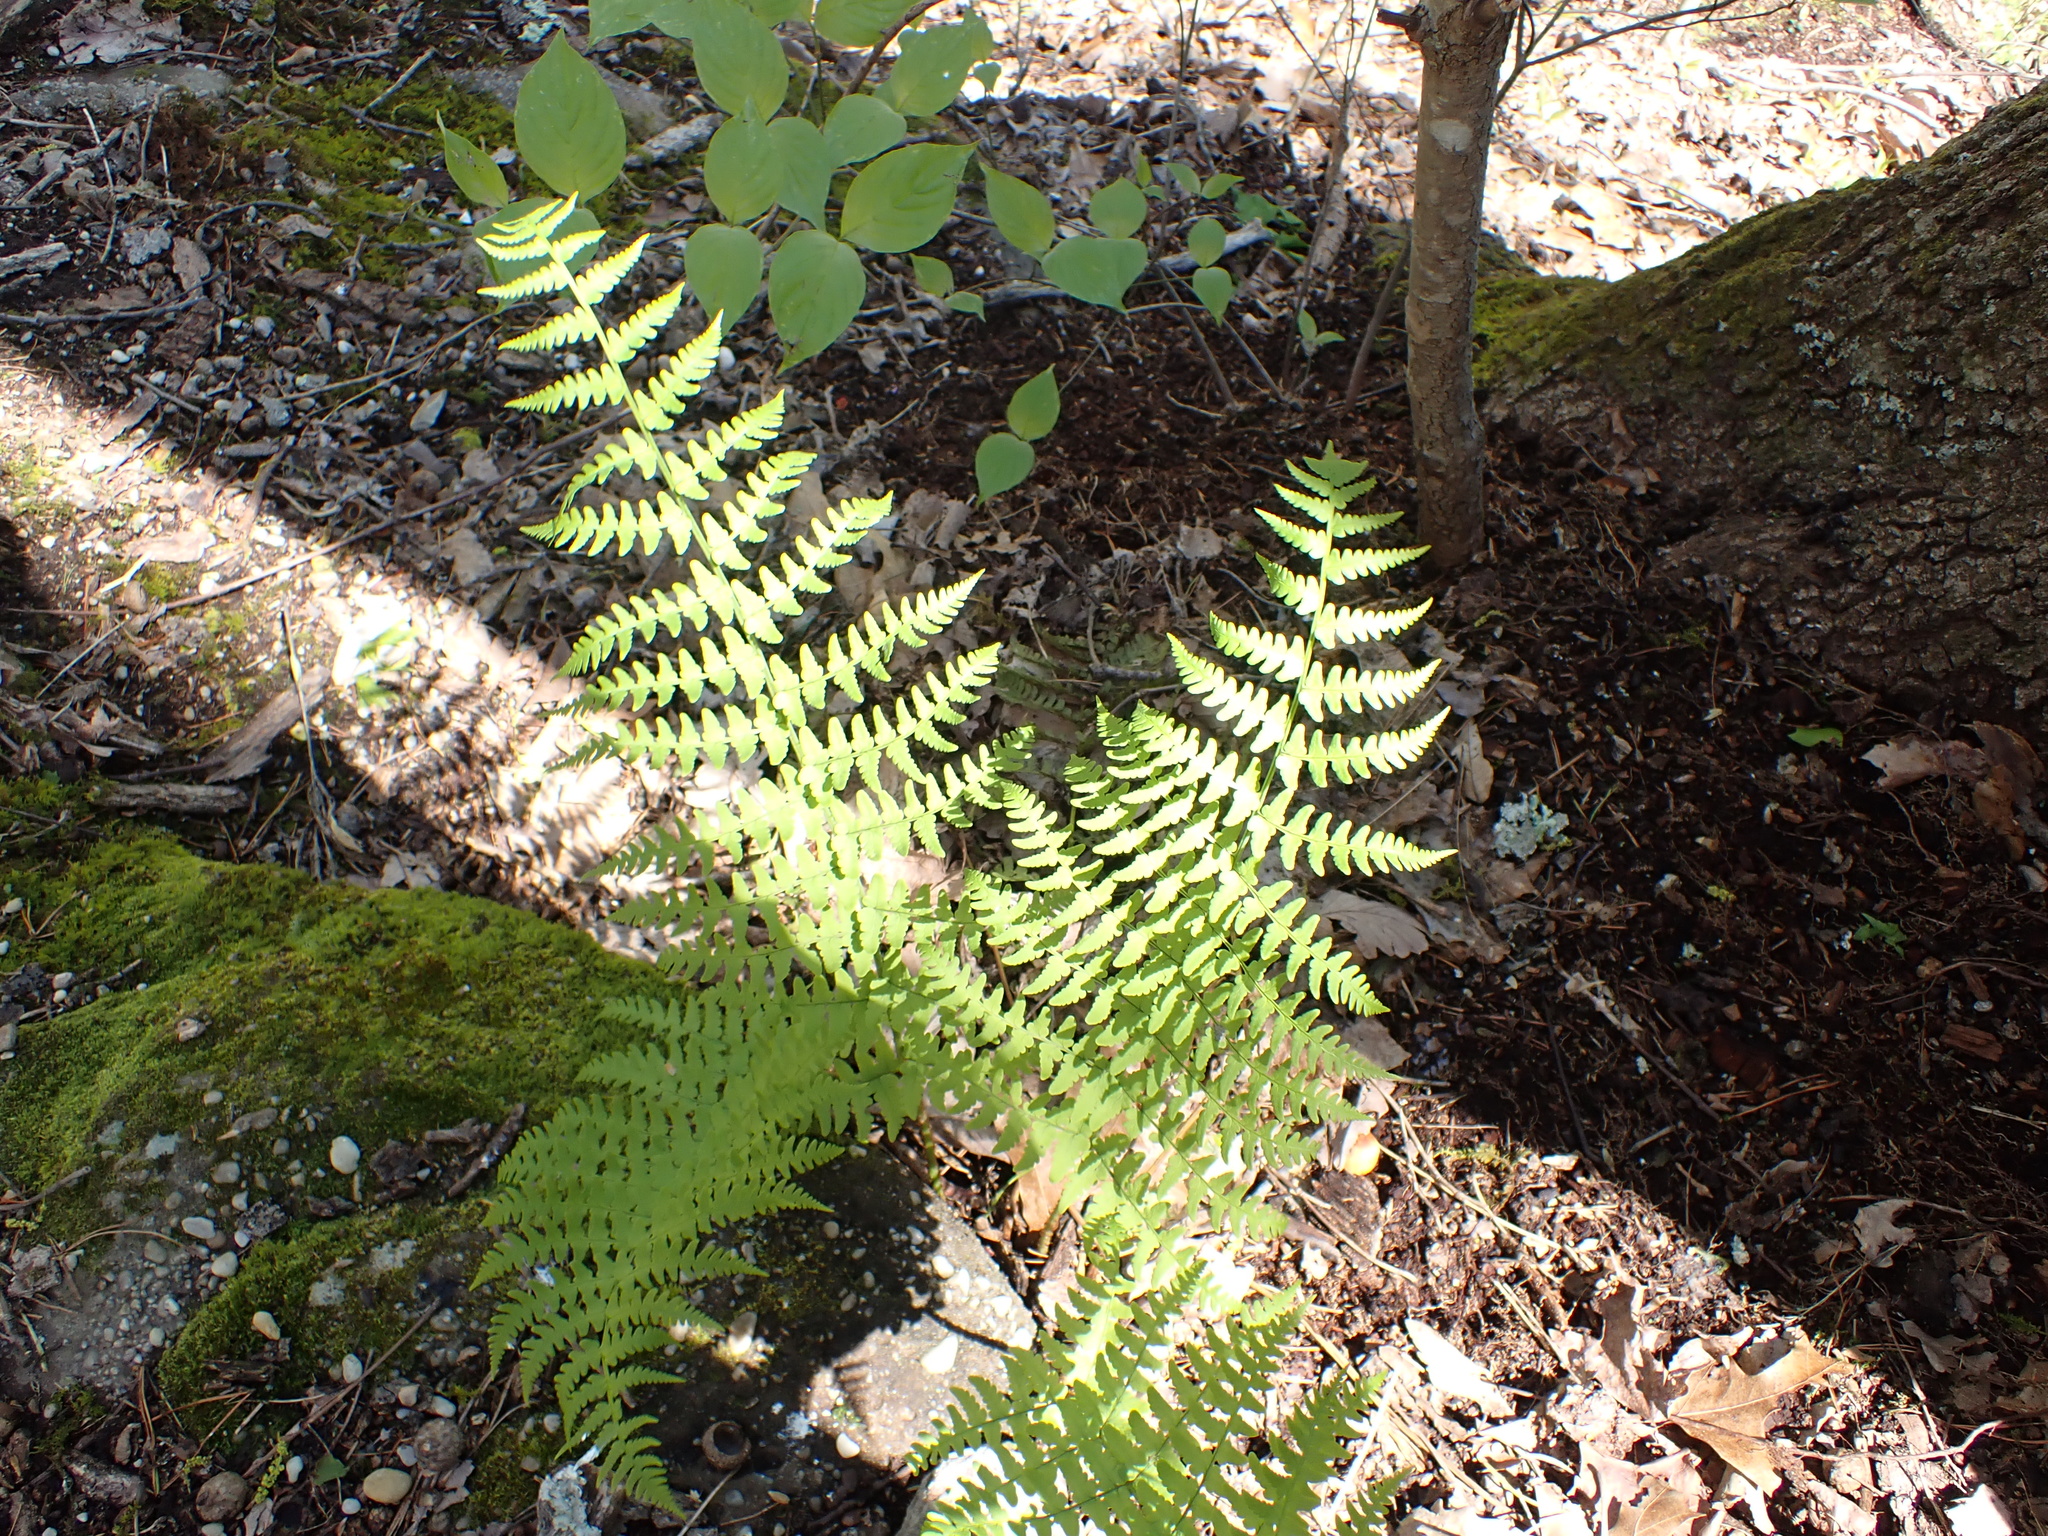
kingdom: Plantae
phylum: Tracheophyta
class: Polypodiopsida
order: Polypodiales
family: Dryopteridaceae
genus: Dryopteris
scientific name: Dryopteris marginalis
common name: Marginal wood fern
